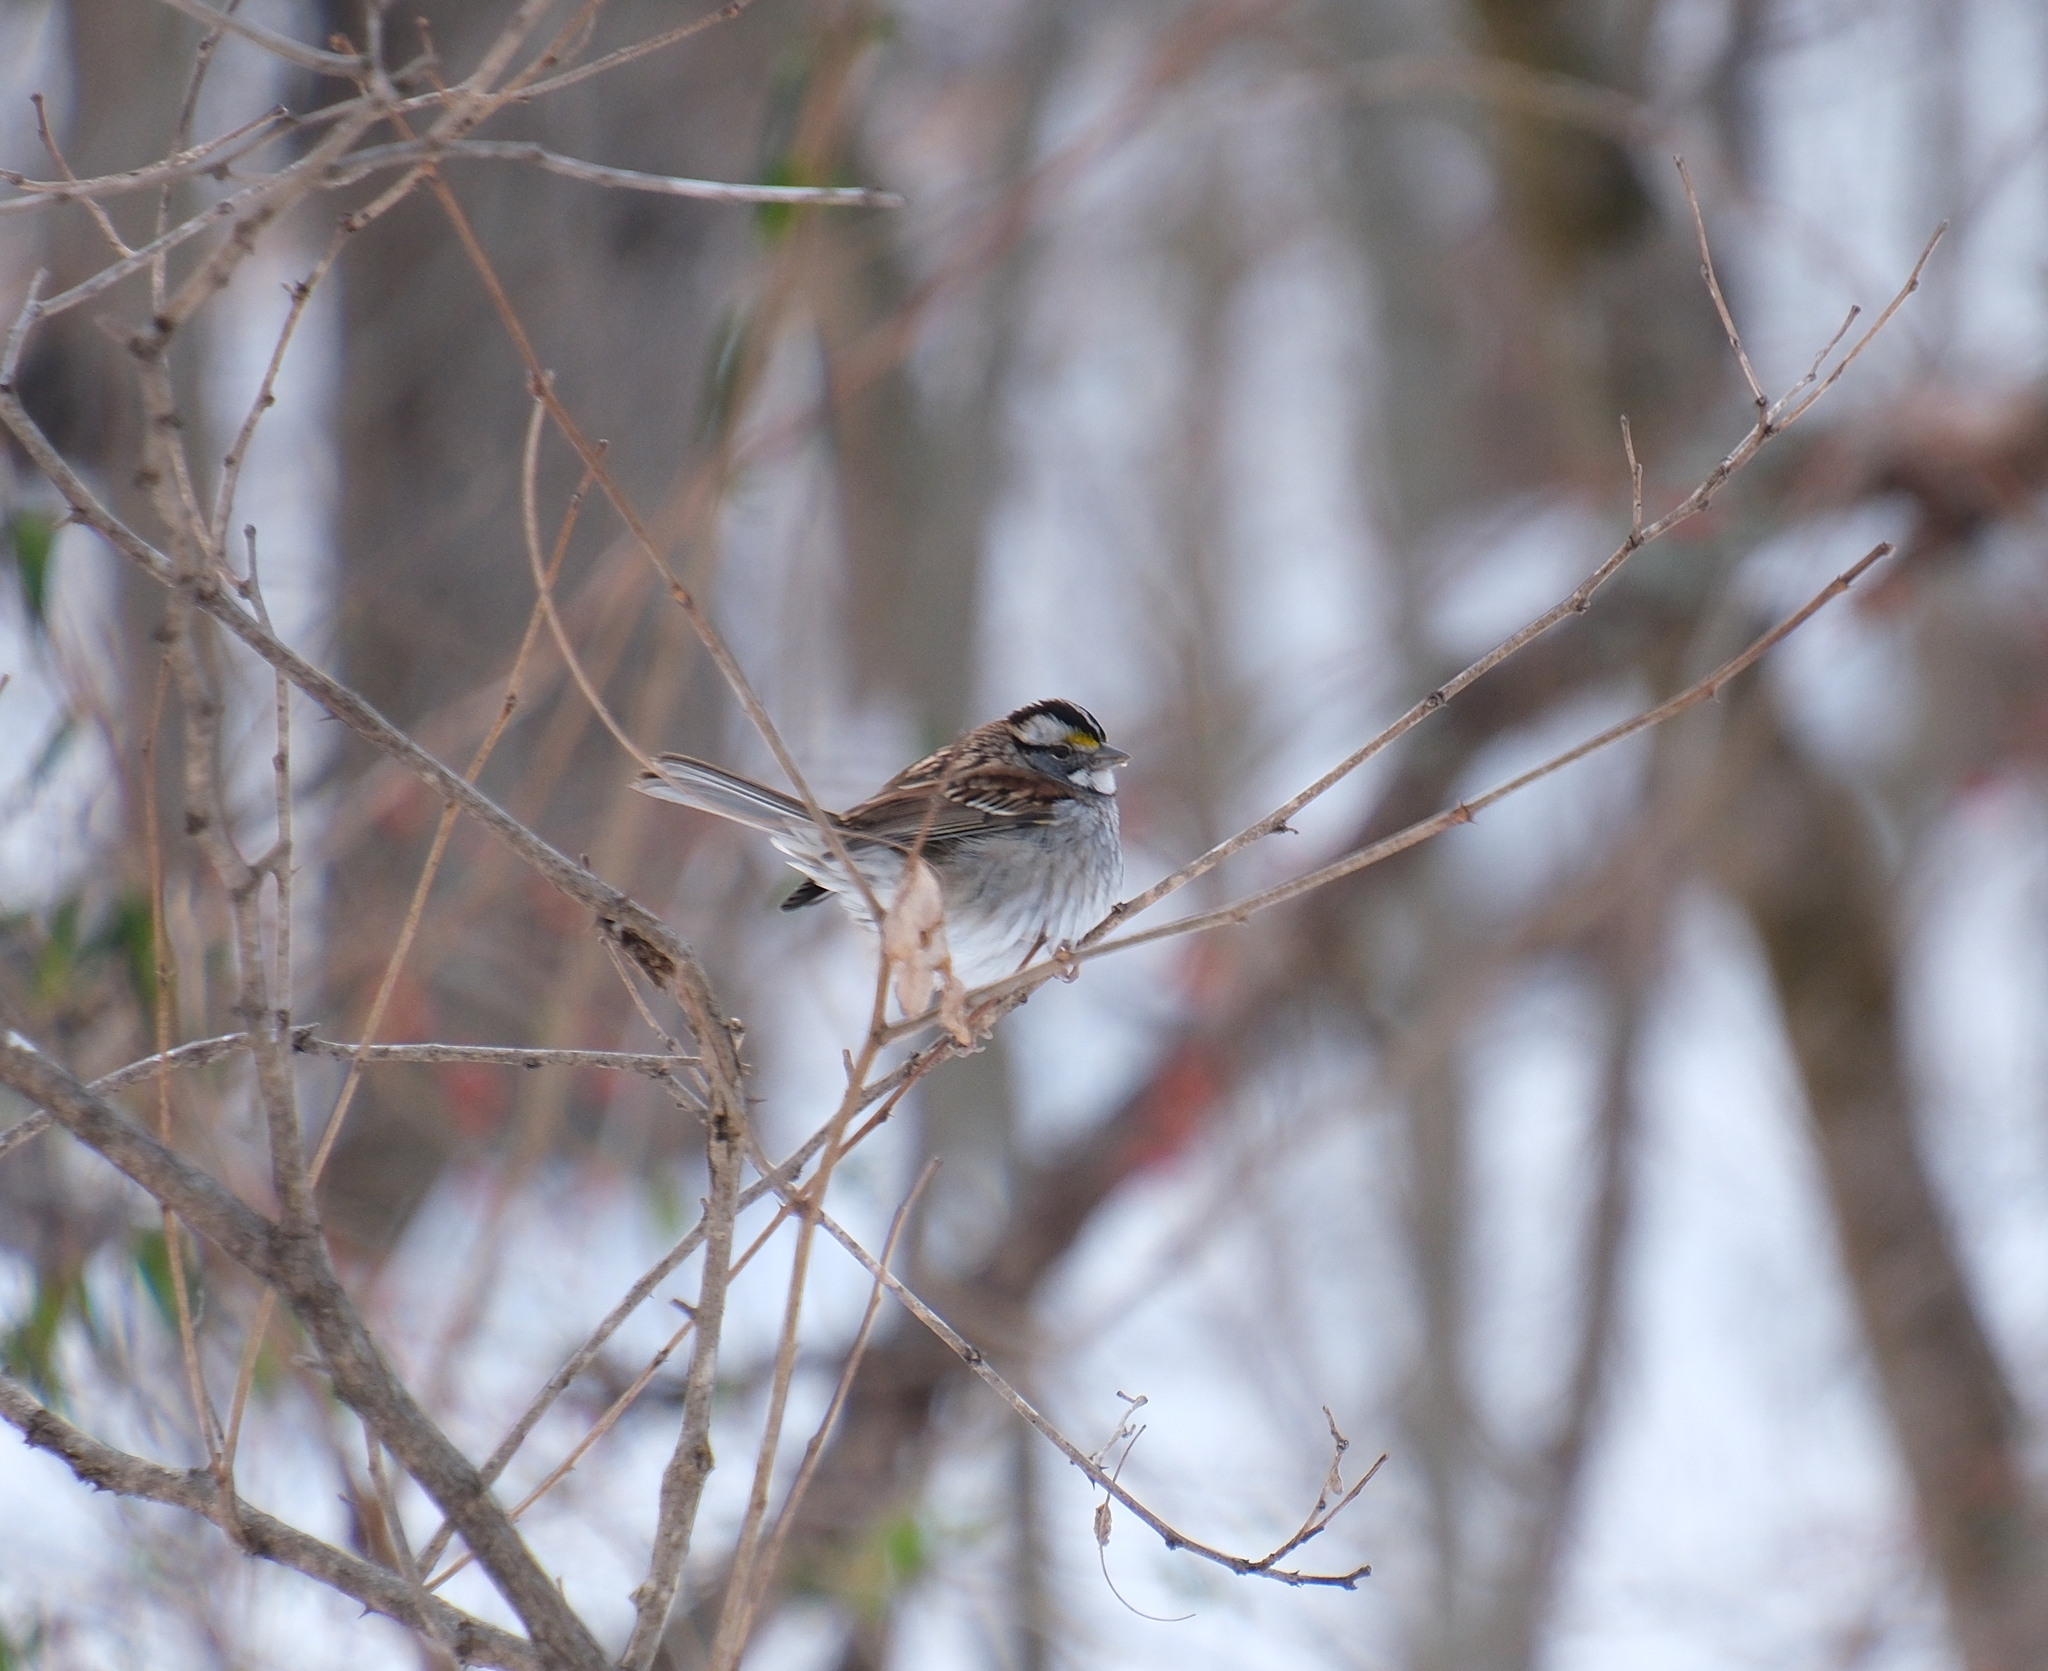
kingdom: Animalia
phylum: Chordata
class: Aves
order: Passeriformes
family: Passerellidae
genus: Zonotrichia
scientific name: Zonotrichia albicollis
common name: White-throated sparrow
